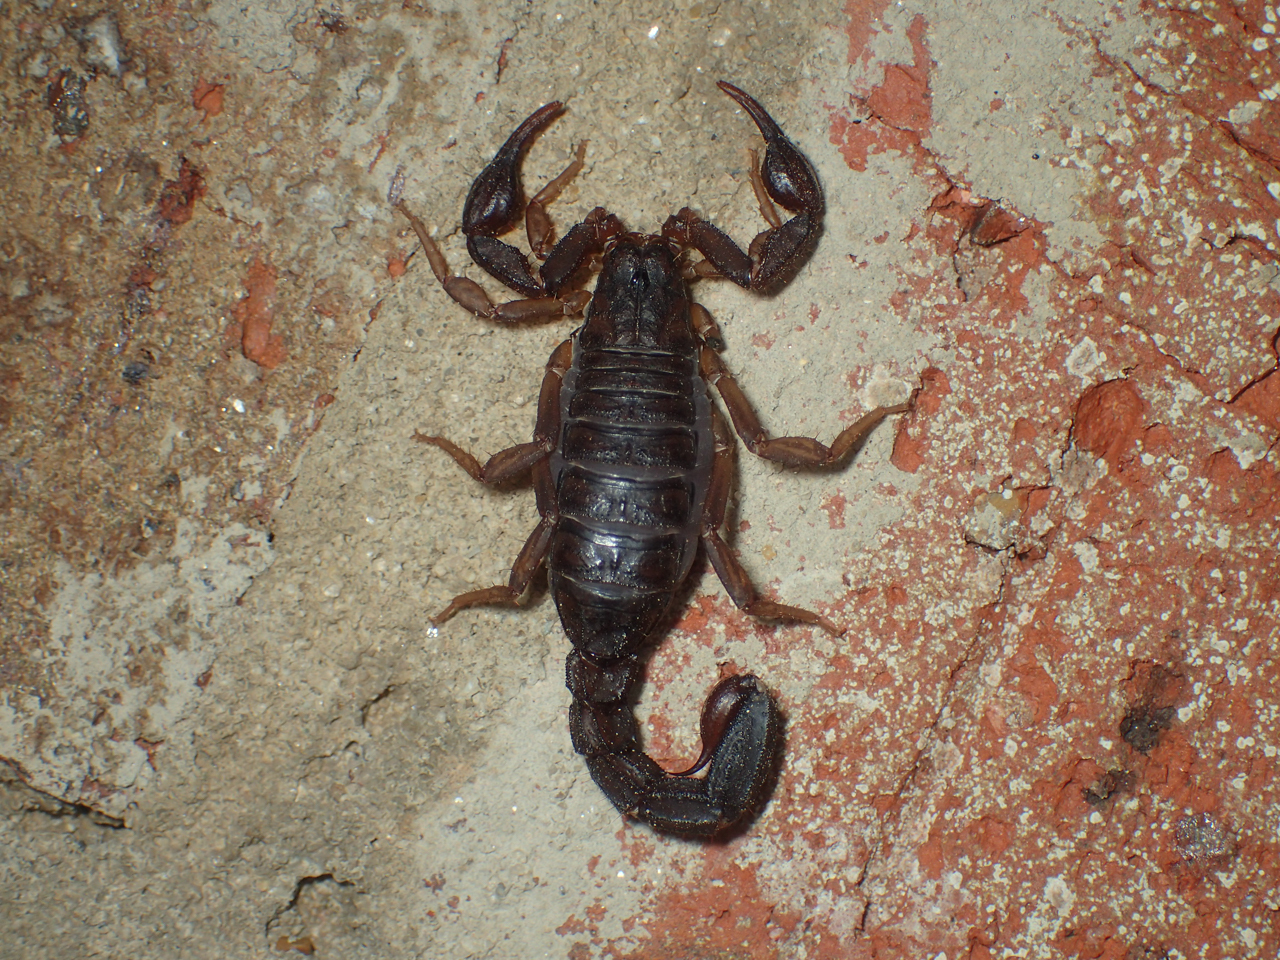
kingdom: Animalia
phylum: Arthropoda
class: Arachnida
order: Scorpiones
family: Vaejovidae
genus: Vaejovis
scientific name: Vaejovis carolinianus
